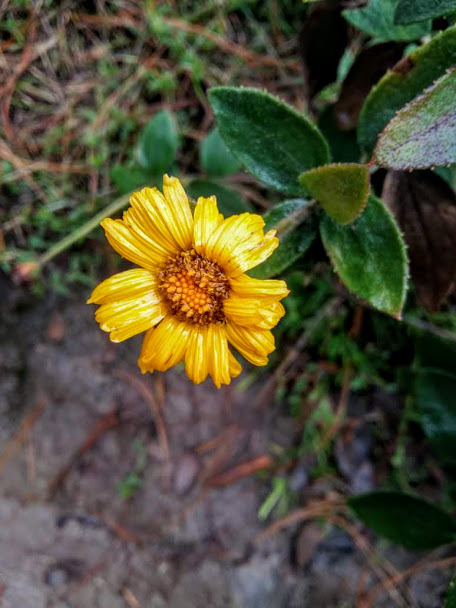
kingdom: Plantae
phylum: Tracheophyta
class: Magnoliopsida
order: Asterales
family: Asteraceae
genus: Calea
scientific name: Calea peruviana
